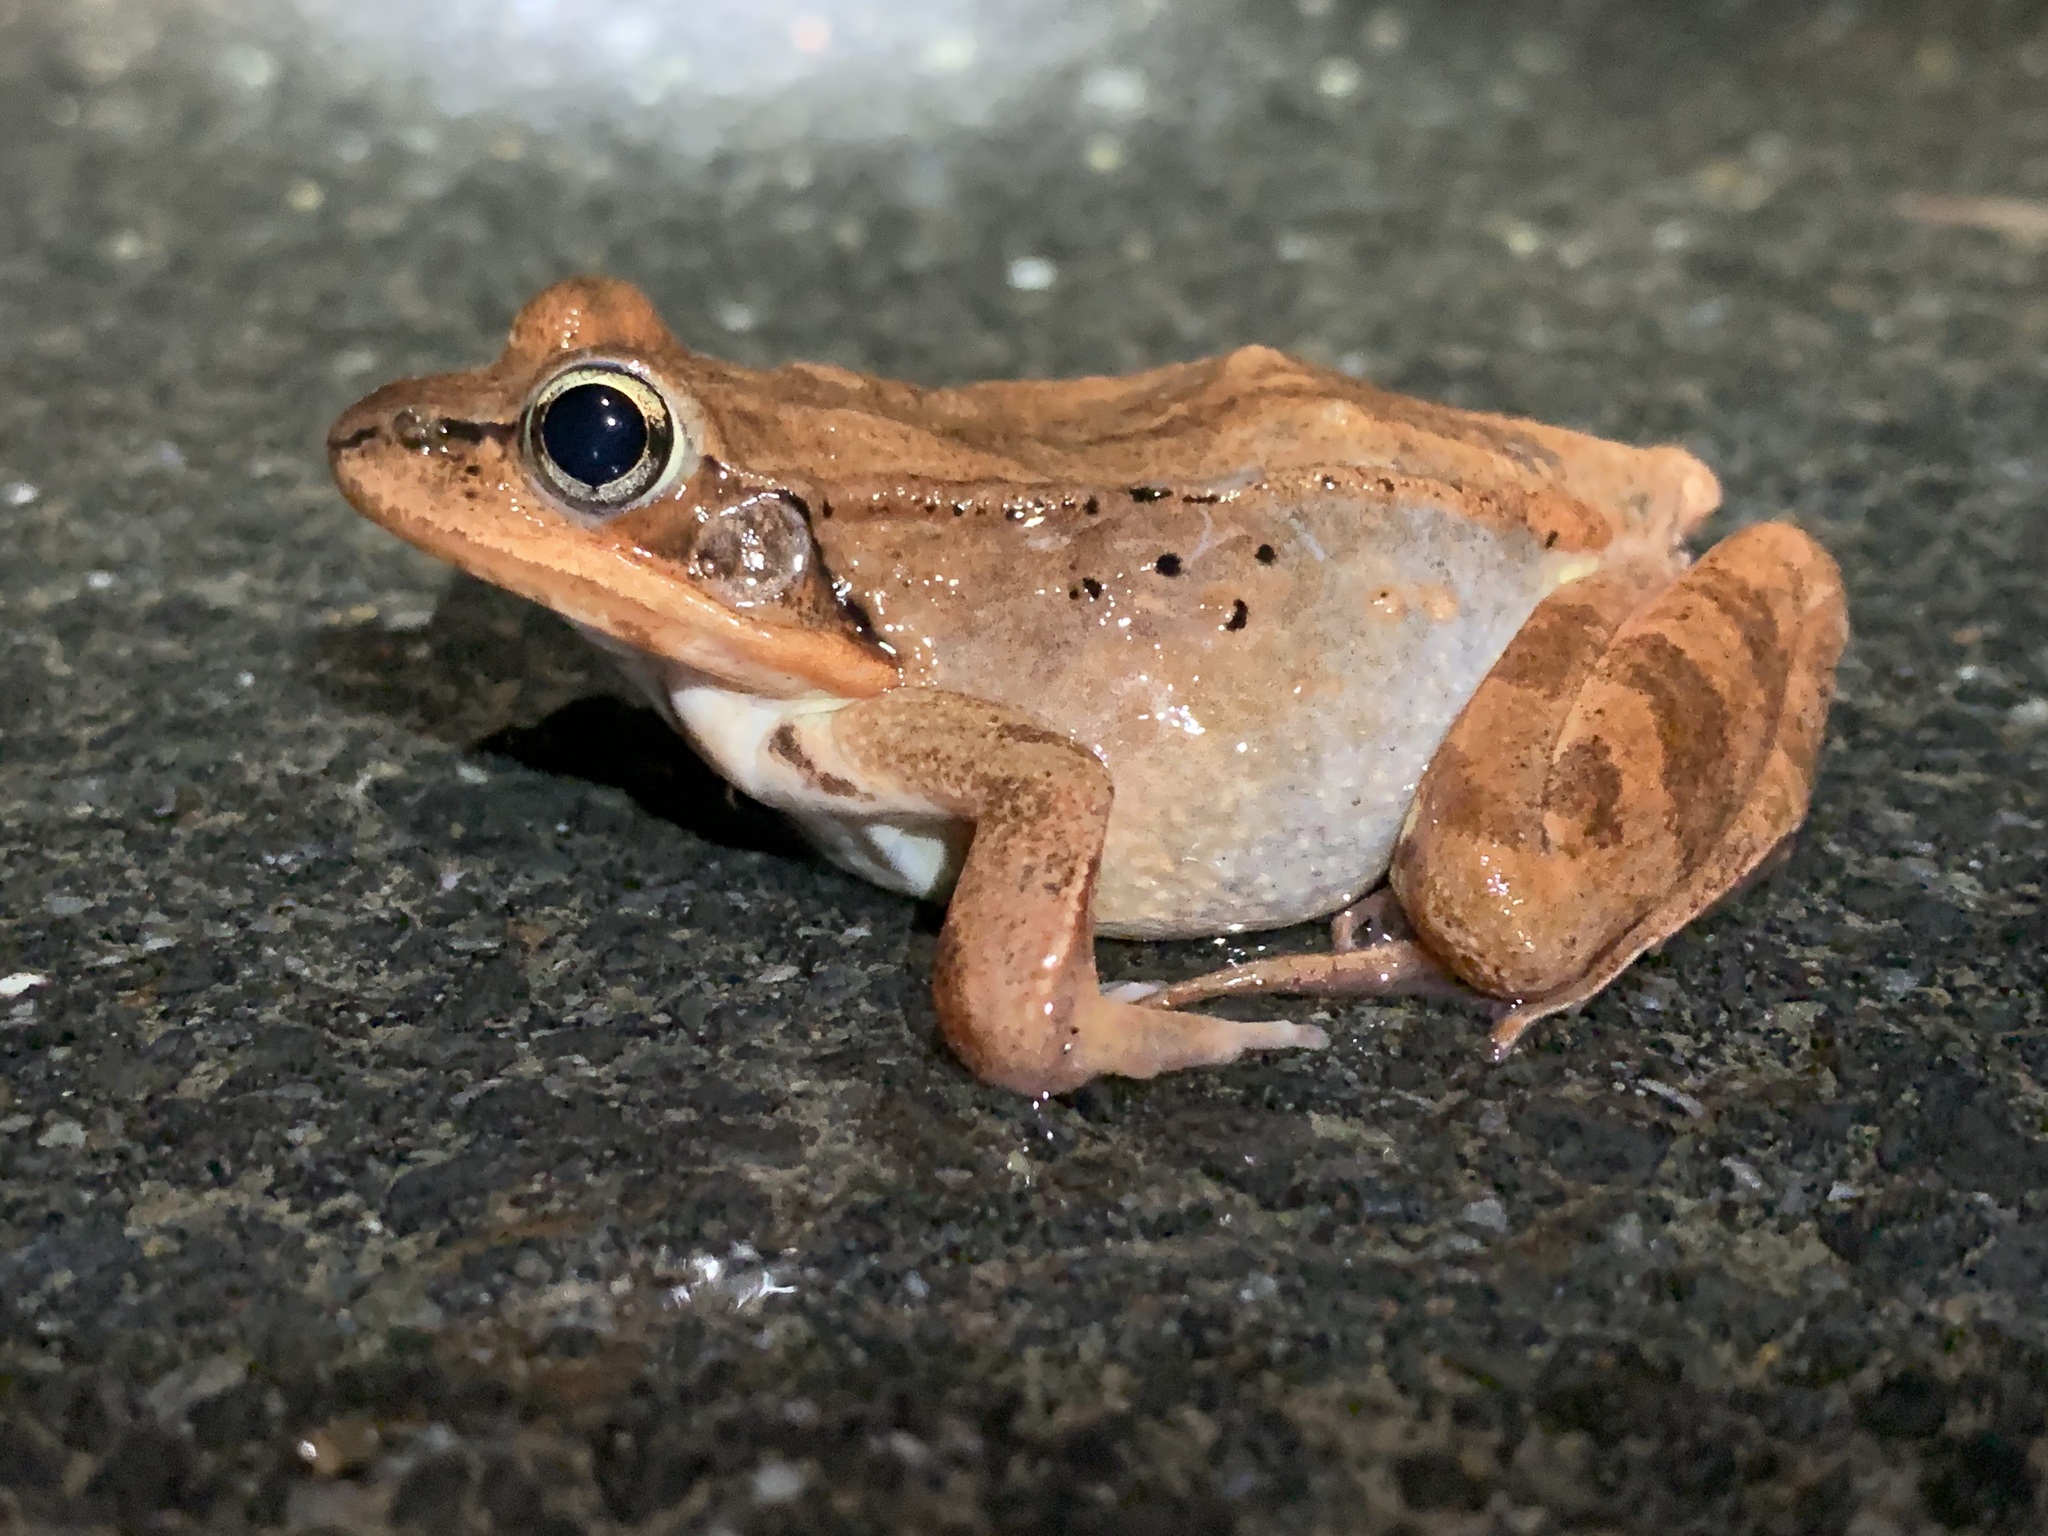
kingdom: Animalia
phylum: Chordata
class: Amphibia
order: Anura
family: Ranidae
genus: Lithobates
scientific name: Lithobates sylvaticus
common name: Wood frog
